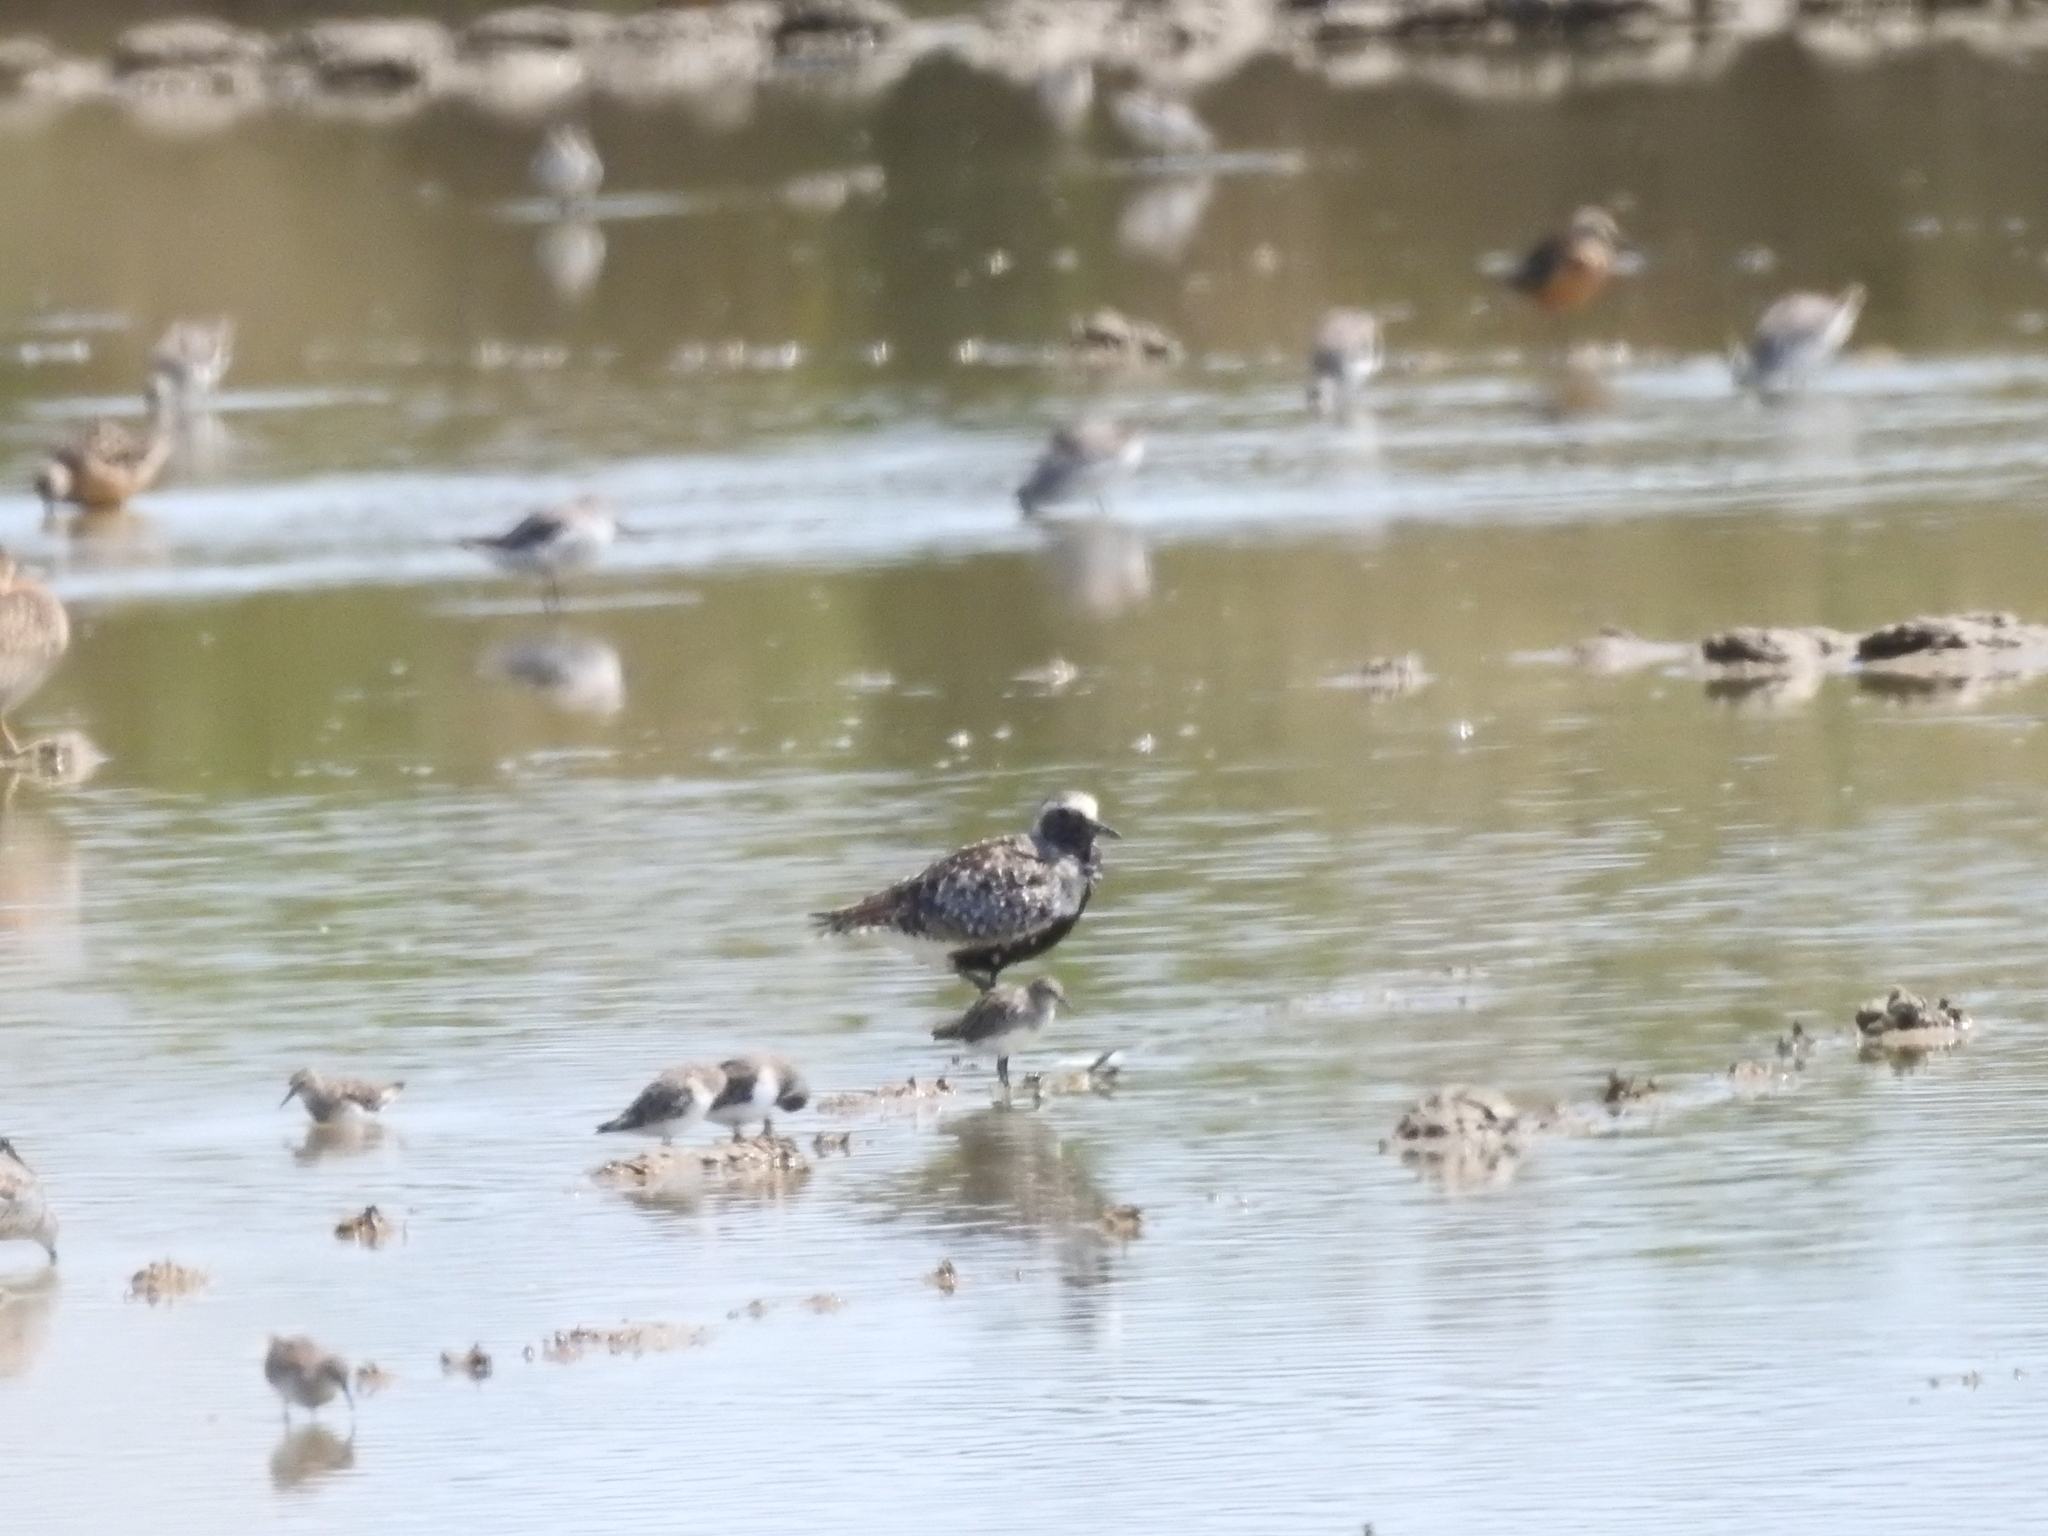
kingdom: Animalia
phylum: Chordata
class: Aves
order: Charadriiformes
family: Charadriidae
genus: Pluvialis
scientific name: Pluvialis squatarola
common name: Grey plover
